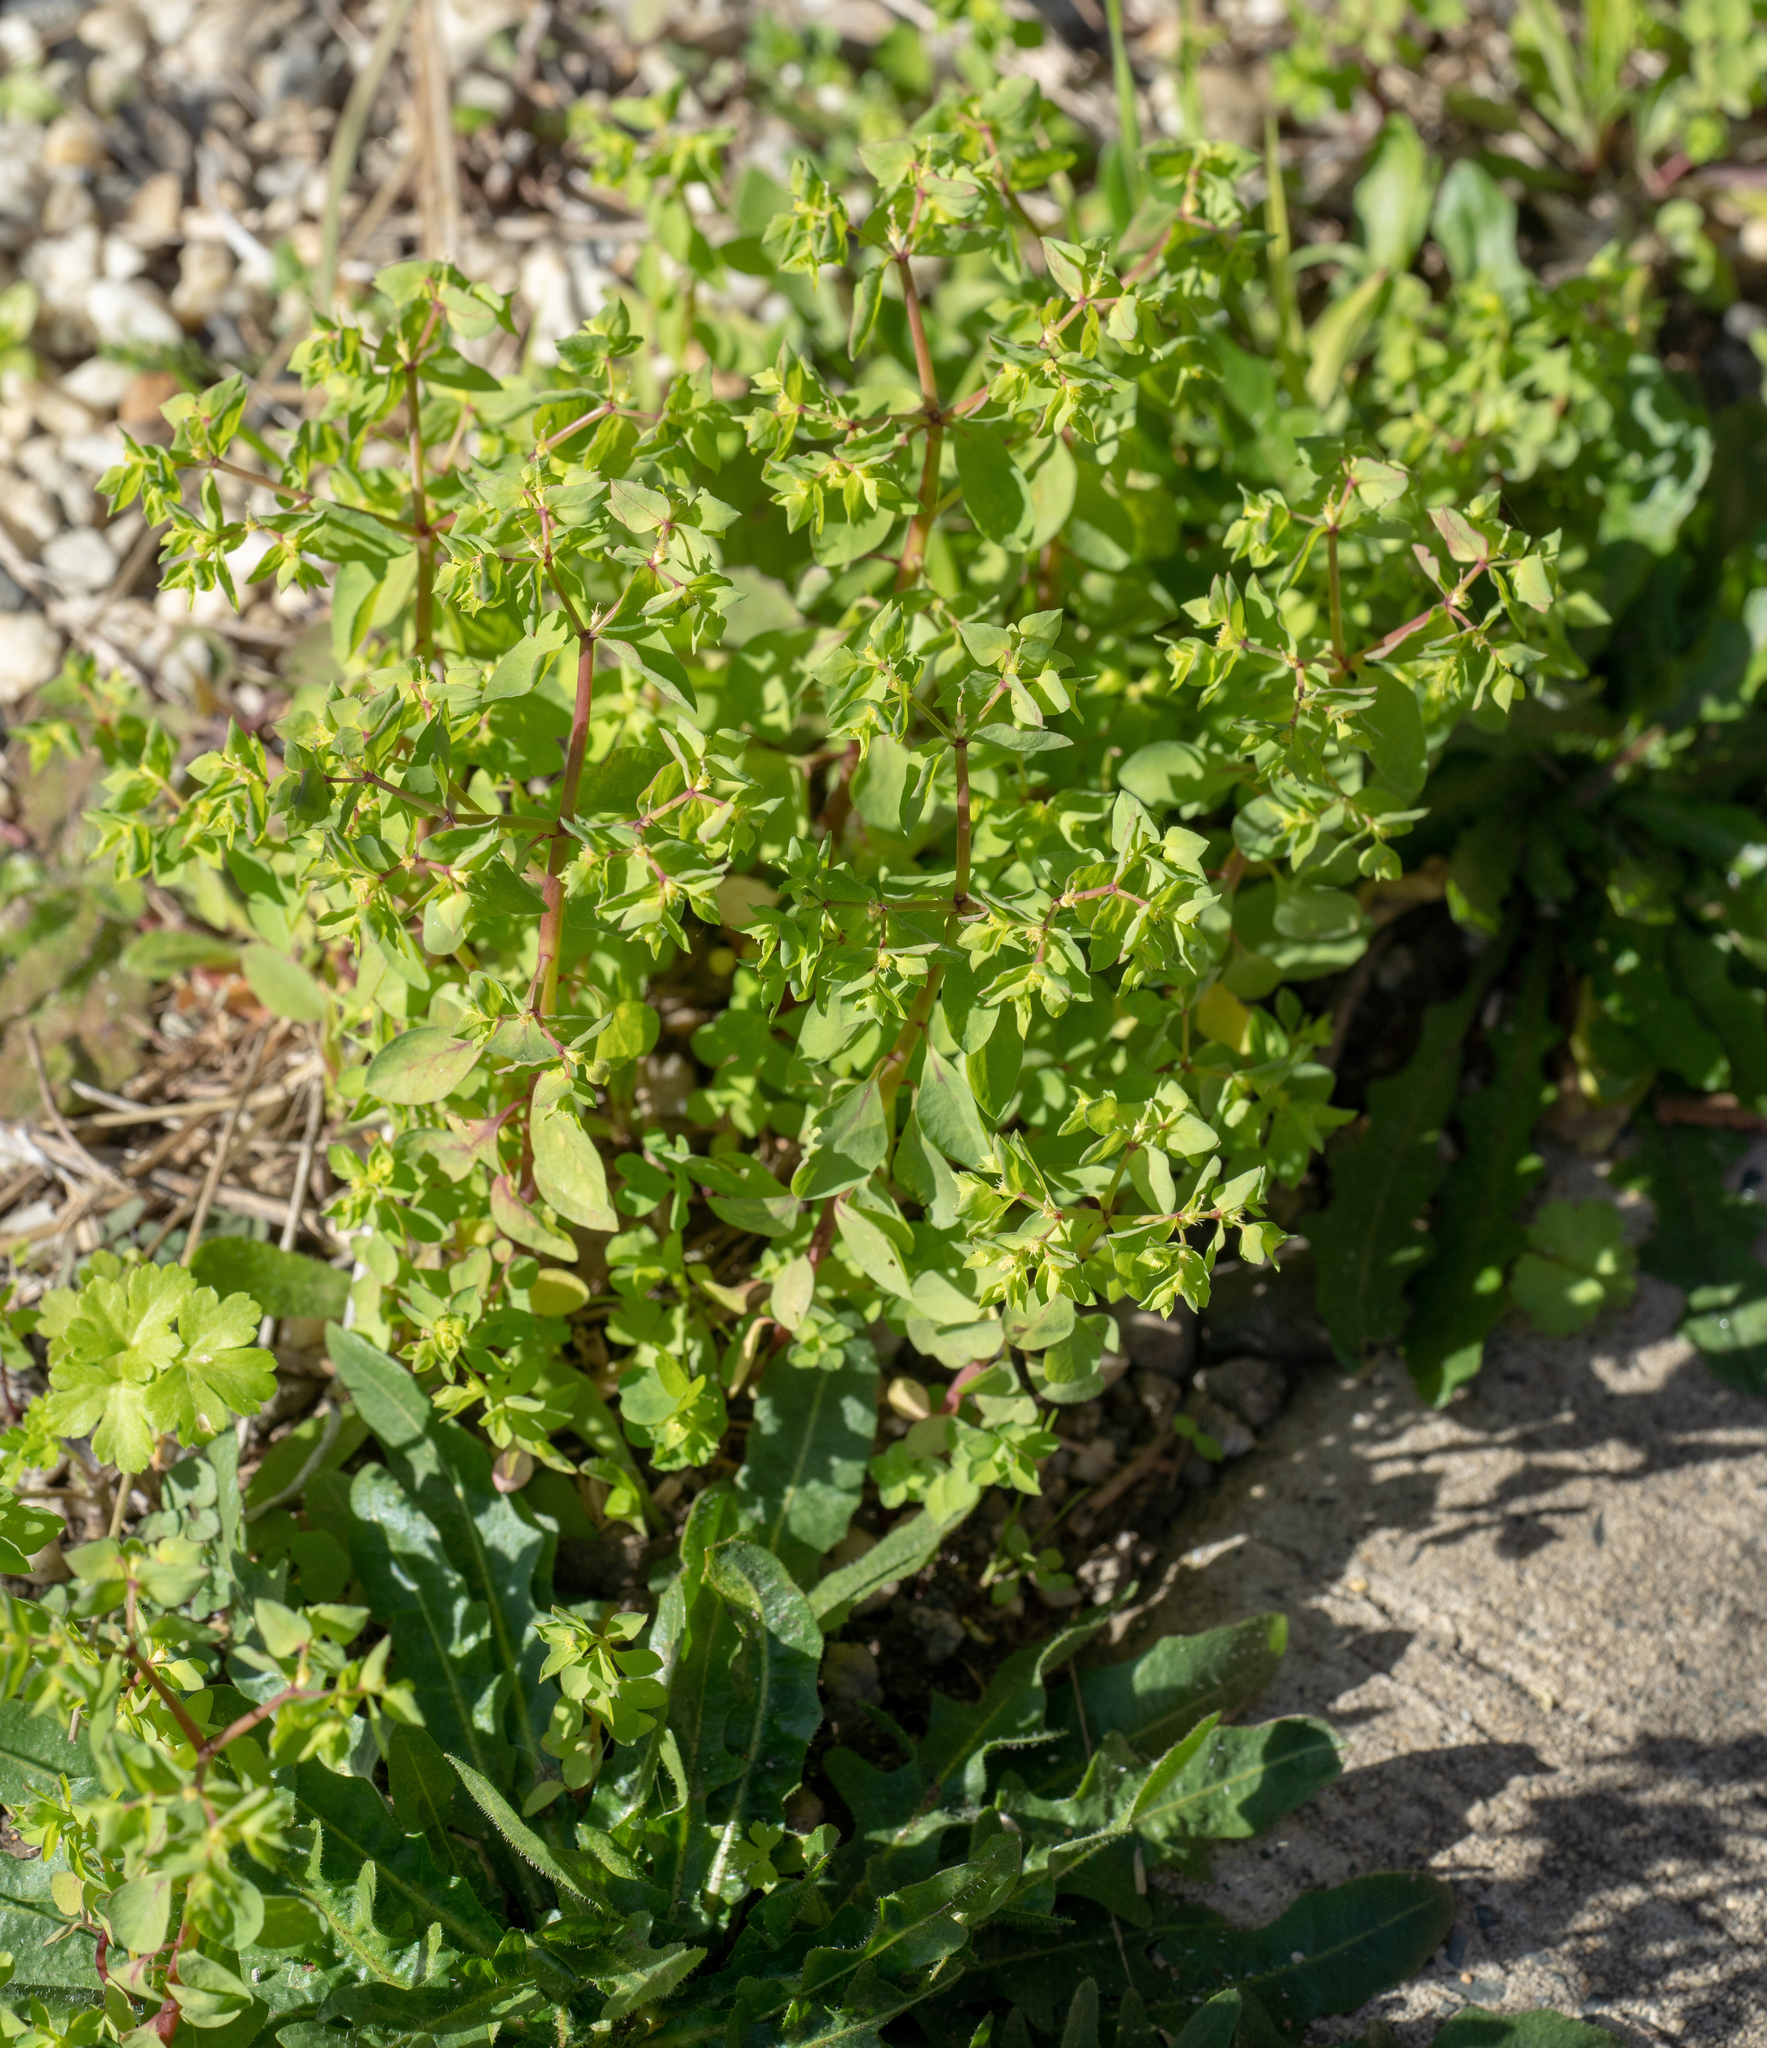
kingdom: Plantae
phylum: Tracheophyta
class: Magnoliopsida
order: Malpighiales
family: Euphorbiaceae
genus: Euphorbia
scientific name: Euphorbia peplus
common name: Petty spurge
